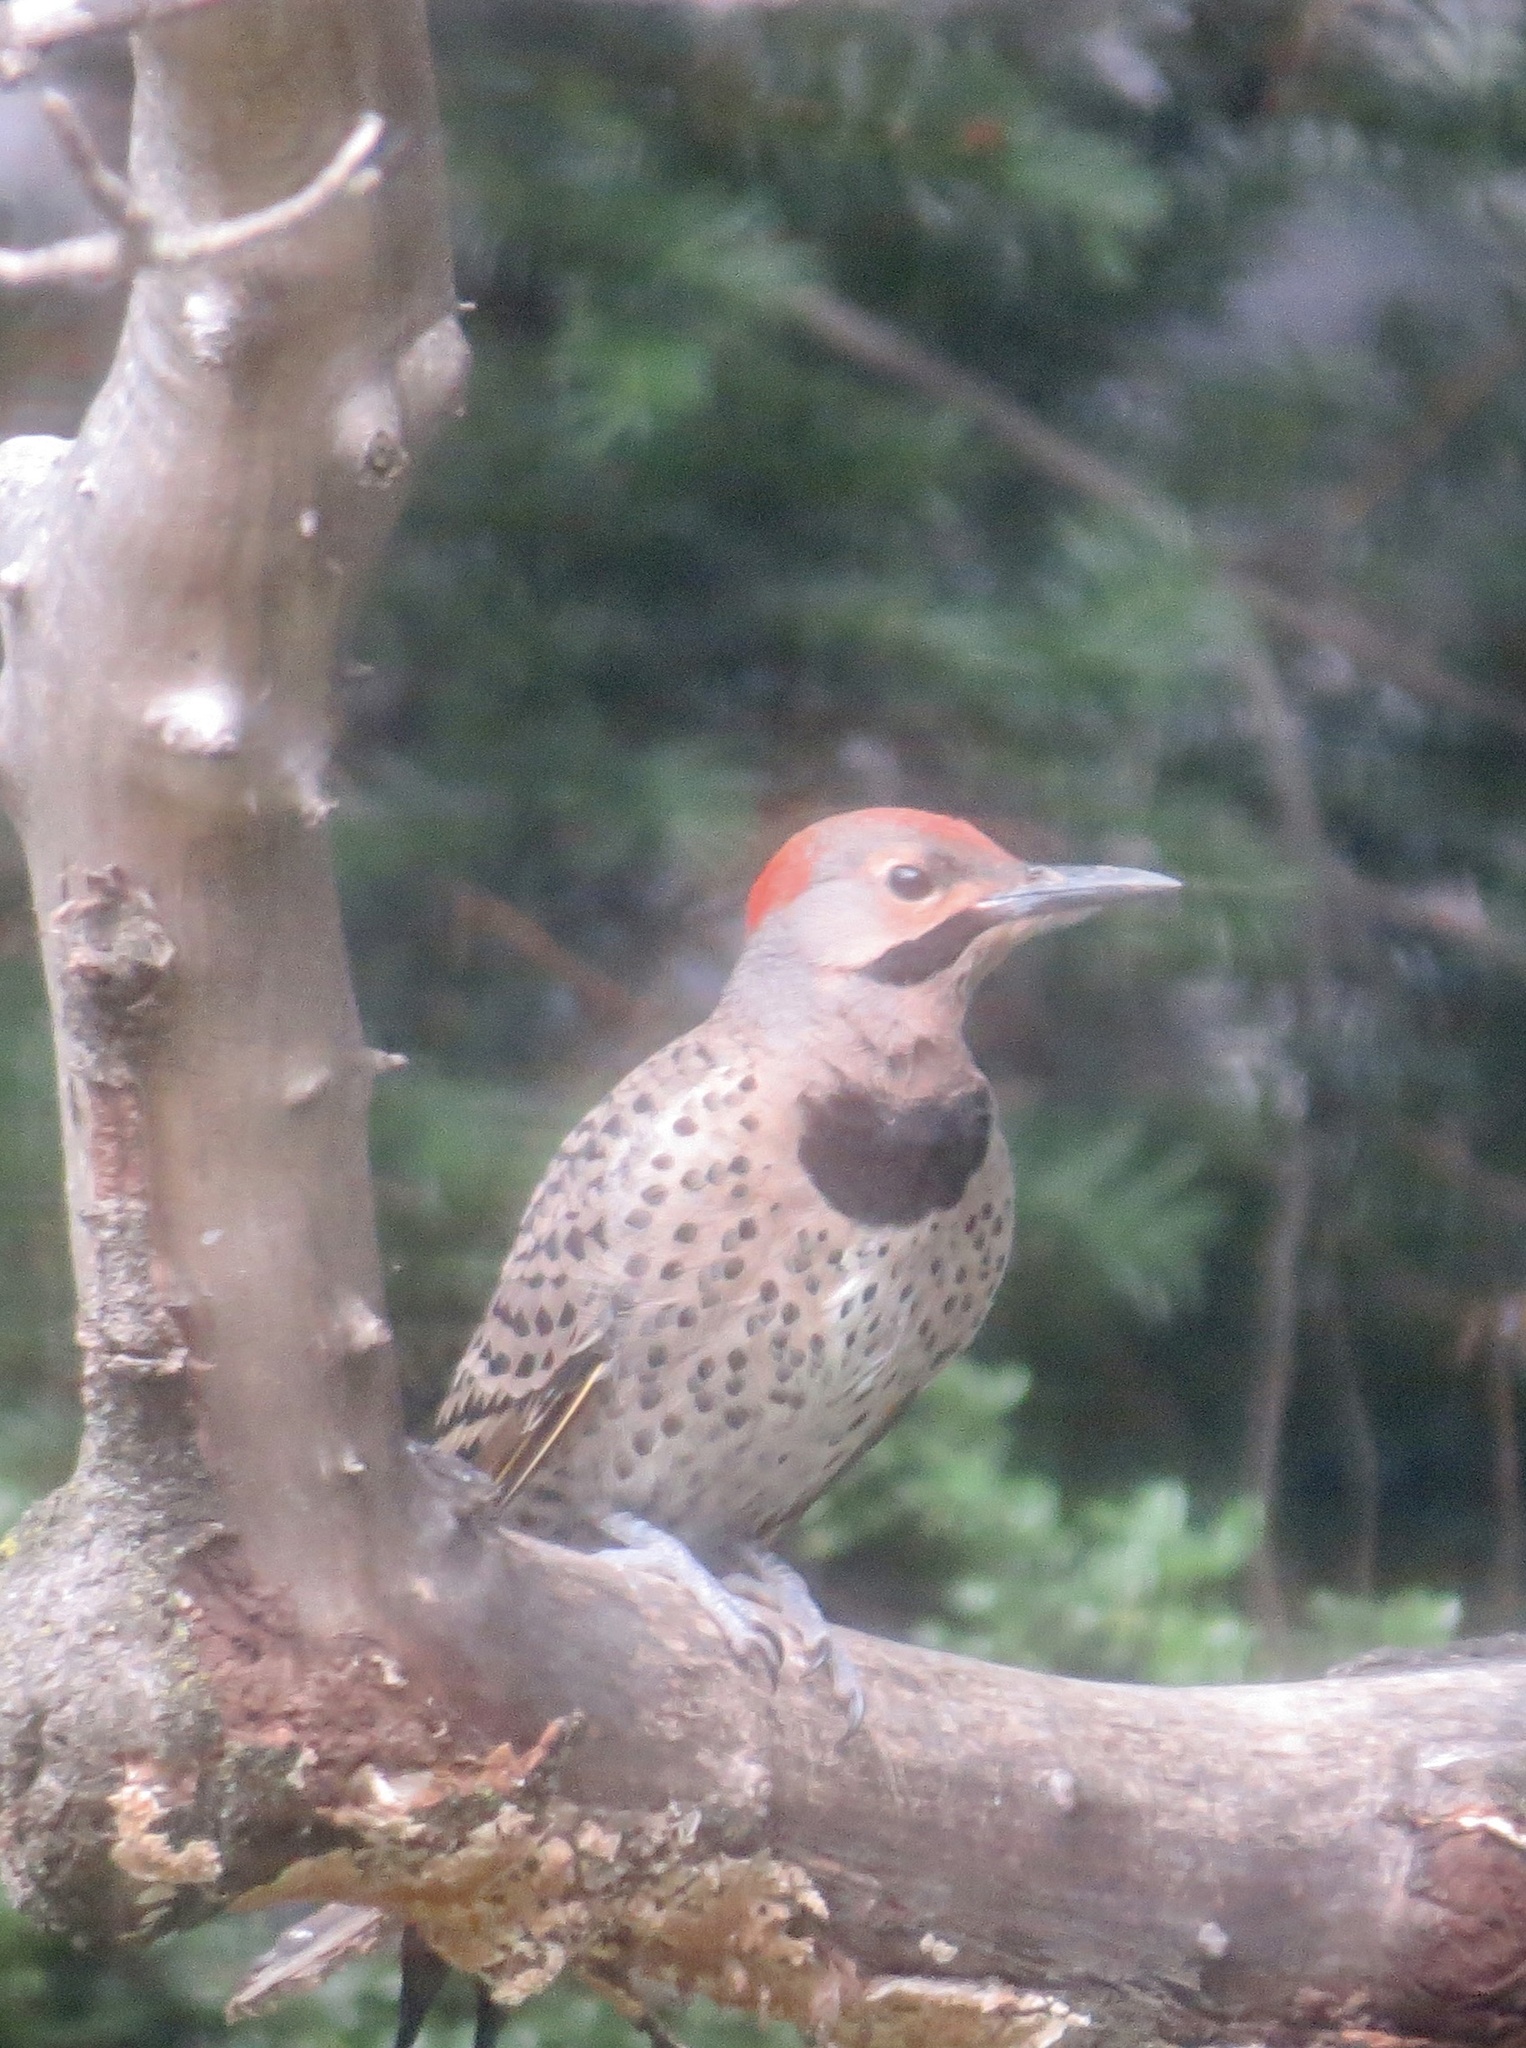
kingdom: Animalia
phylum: Chordata
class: Aves
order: Piciformes
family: Picidae
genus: Colaptes
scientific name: Colaptes auratus
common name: Northern flicker
